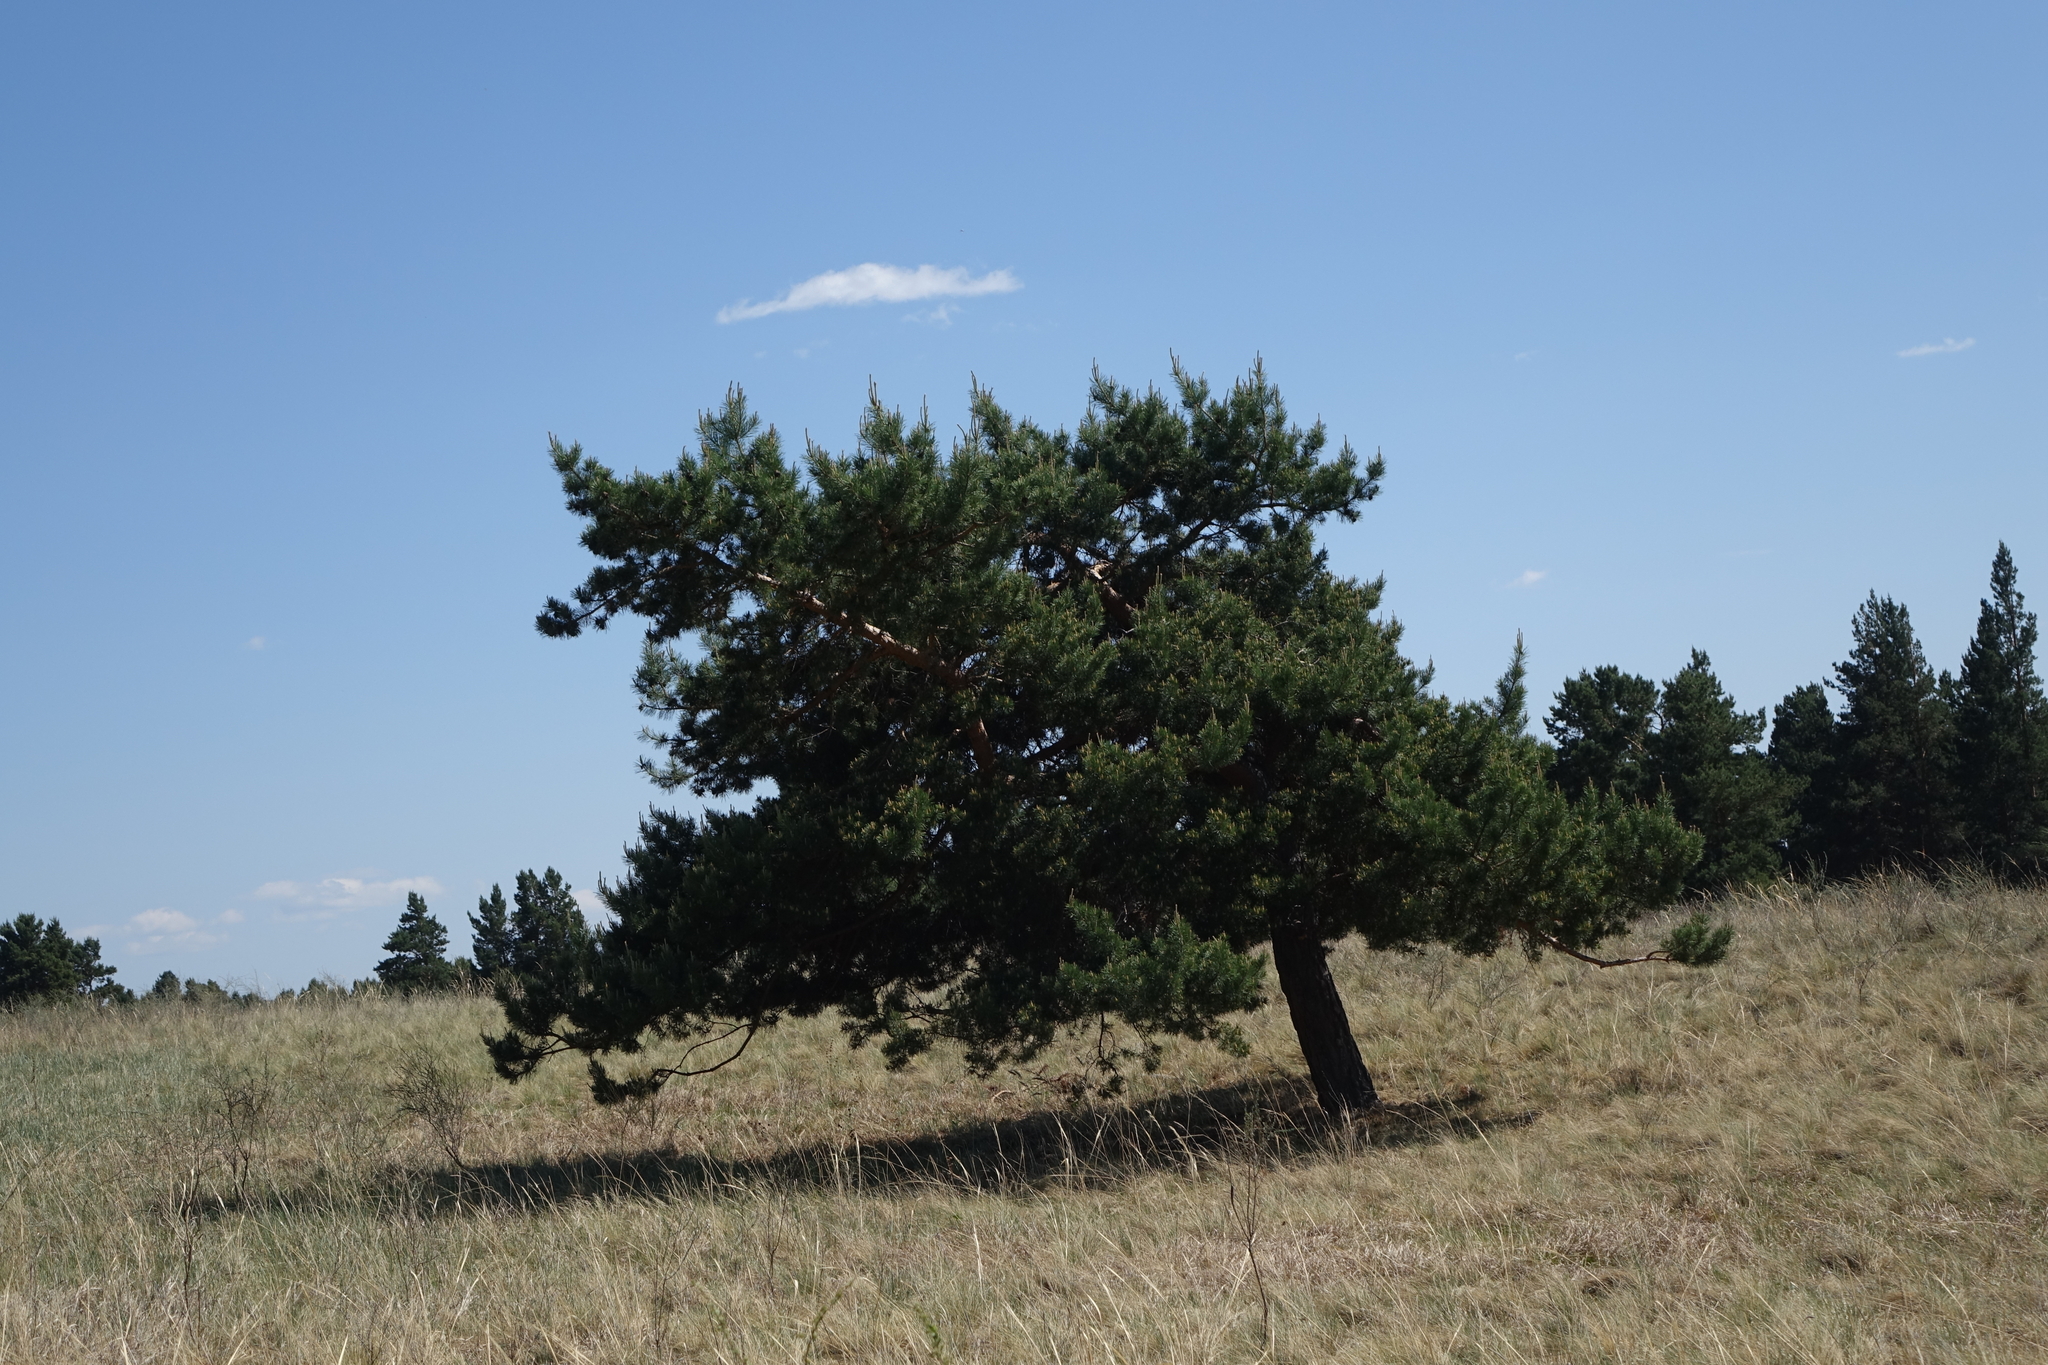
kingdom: Plantae
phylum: Tracheophyta
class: Pinopsida
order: Pinales
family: Pinaceae
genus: Pinus
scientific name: Pinus sylvestris
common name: Scots pine
